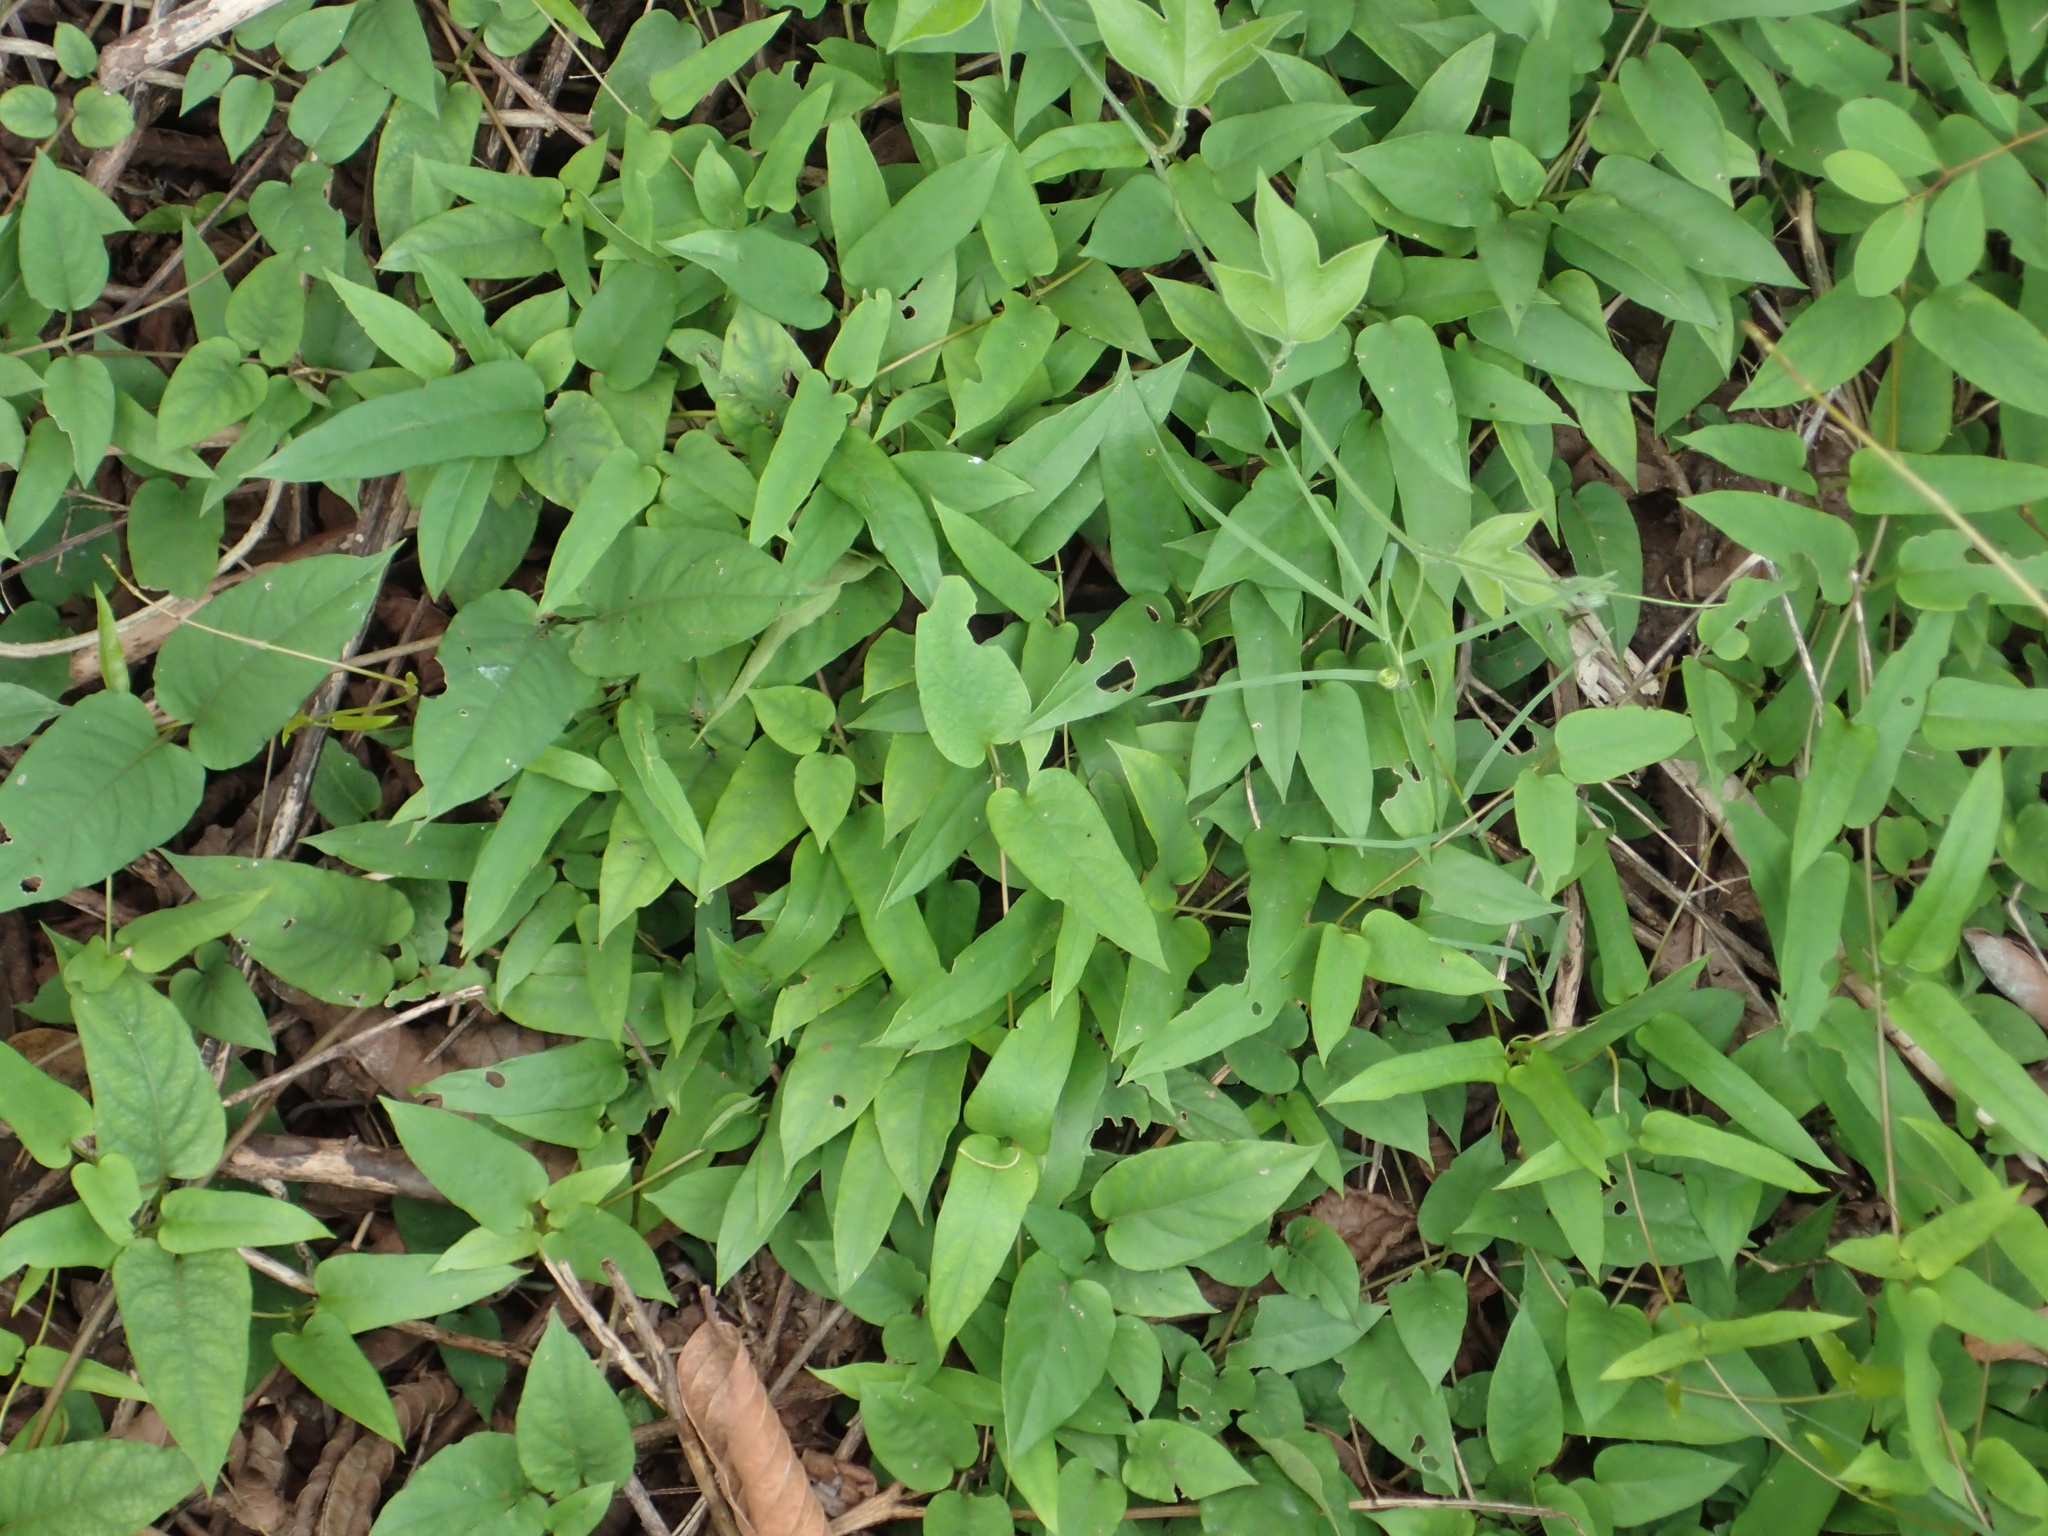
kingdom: Plantae
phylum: Tracheophyta
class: Magnoliopsida
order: Gentianales
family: Rubiaceae
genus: Paederia
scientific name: Paederia foetida
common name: Stinkvine
